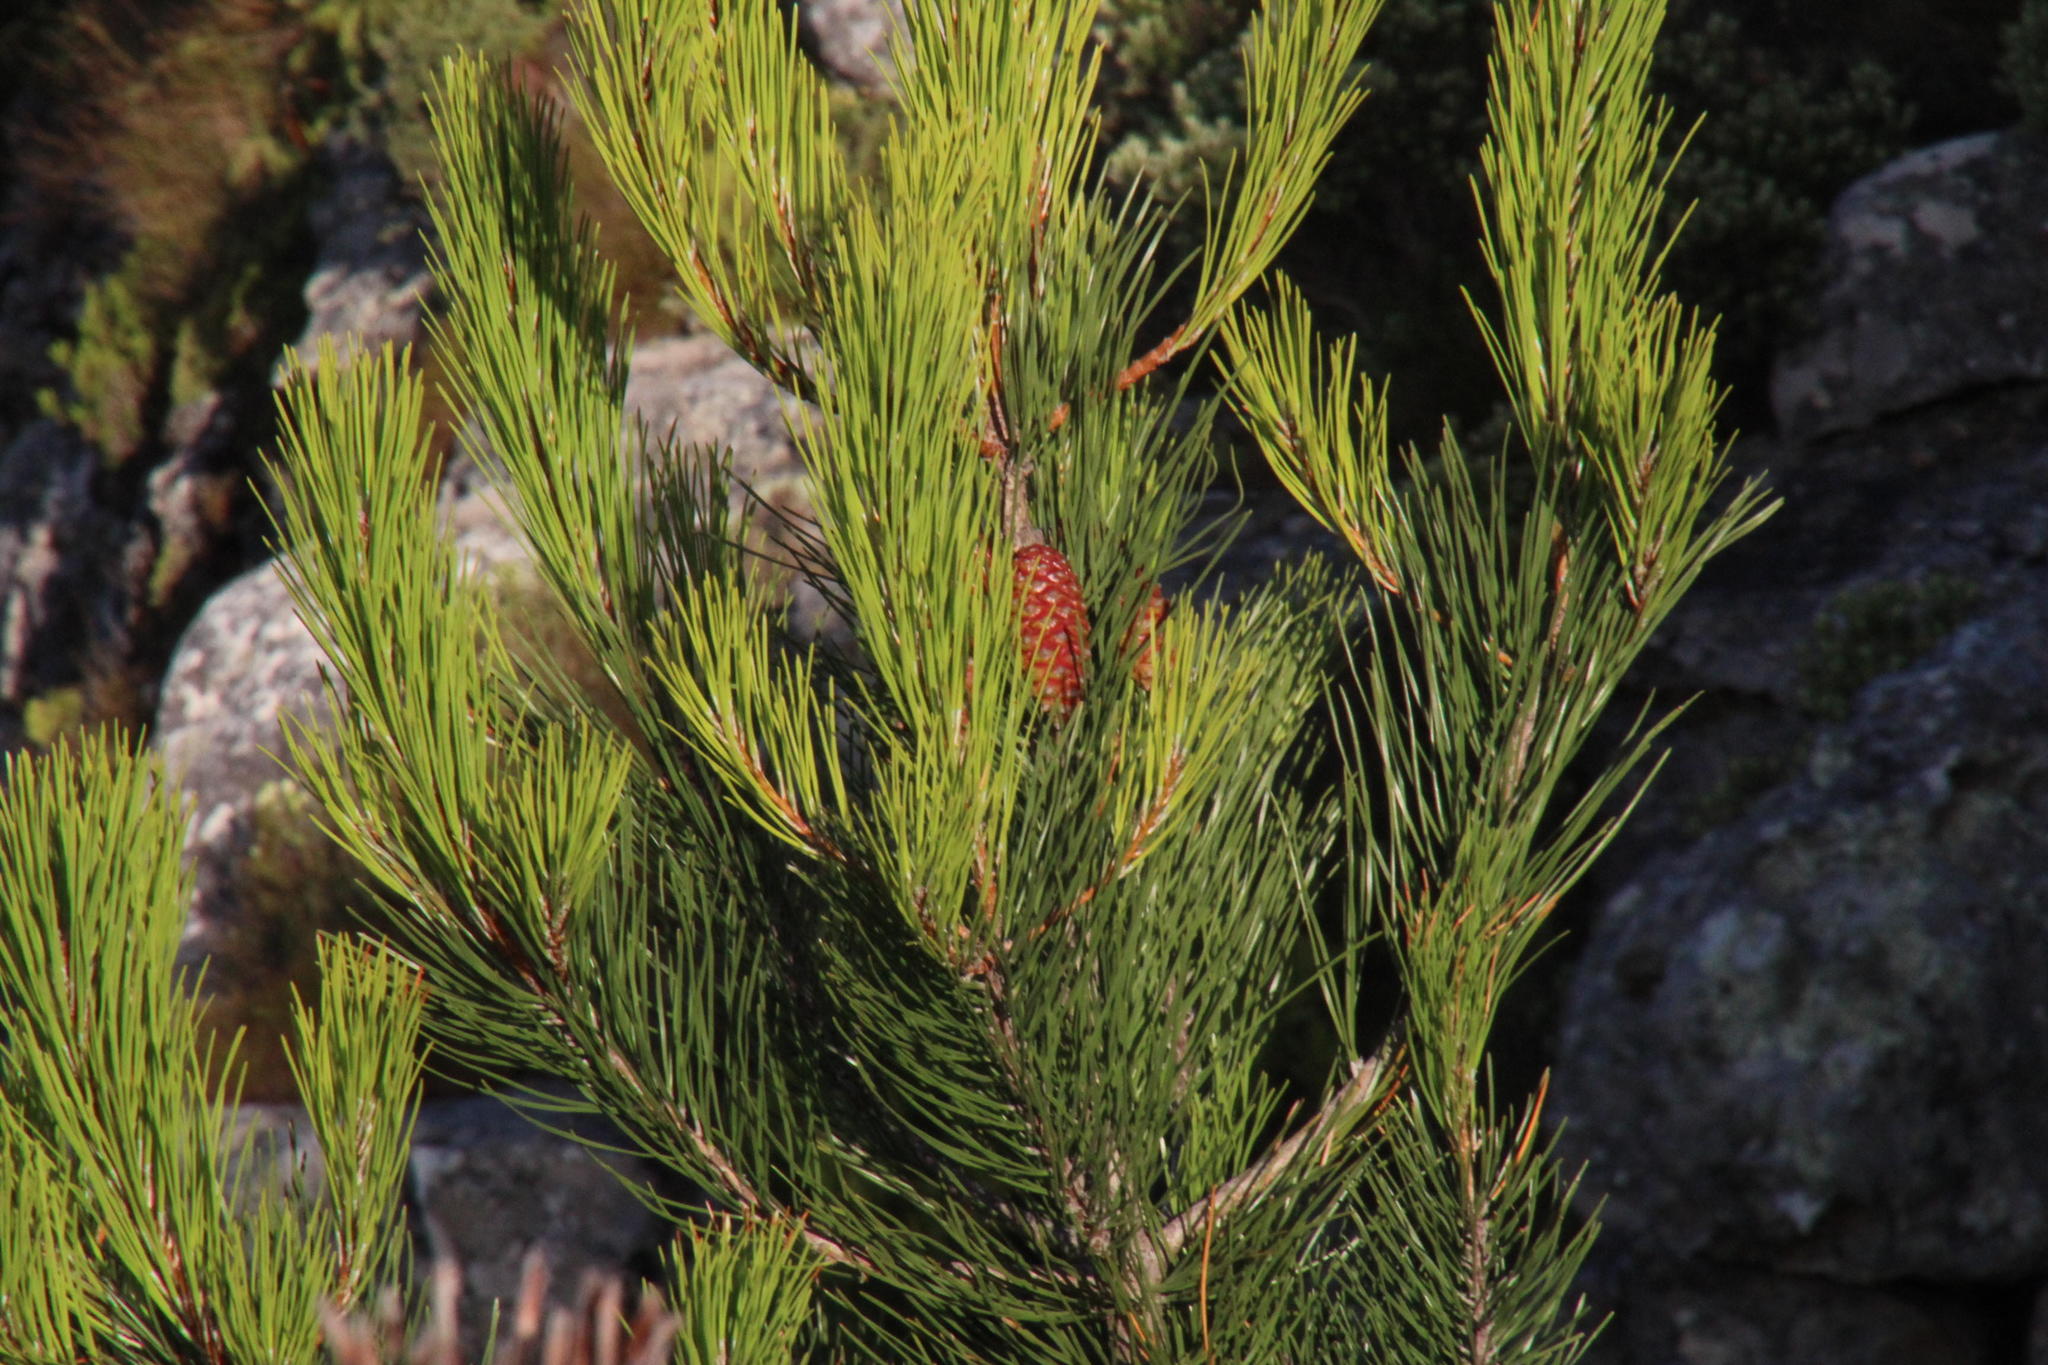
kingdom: Plantae
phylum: Tracheophyta
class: Pinopsida
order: Pinales
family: Pinaceae
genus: Pinus
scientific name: Pinus pinaster
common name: Maritime pine
